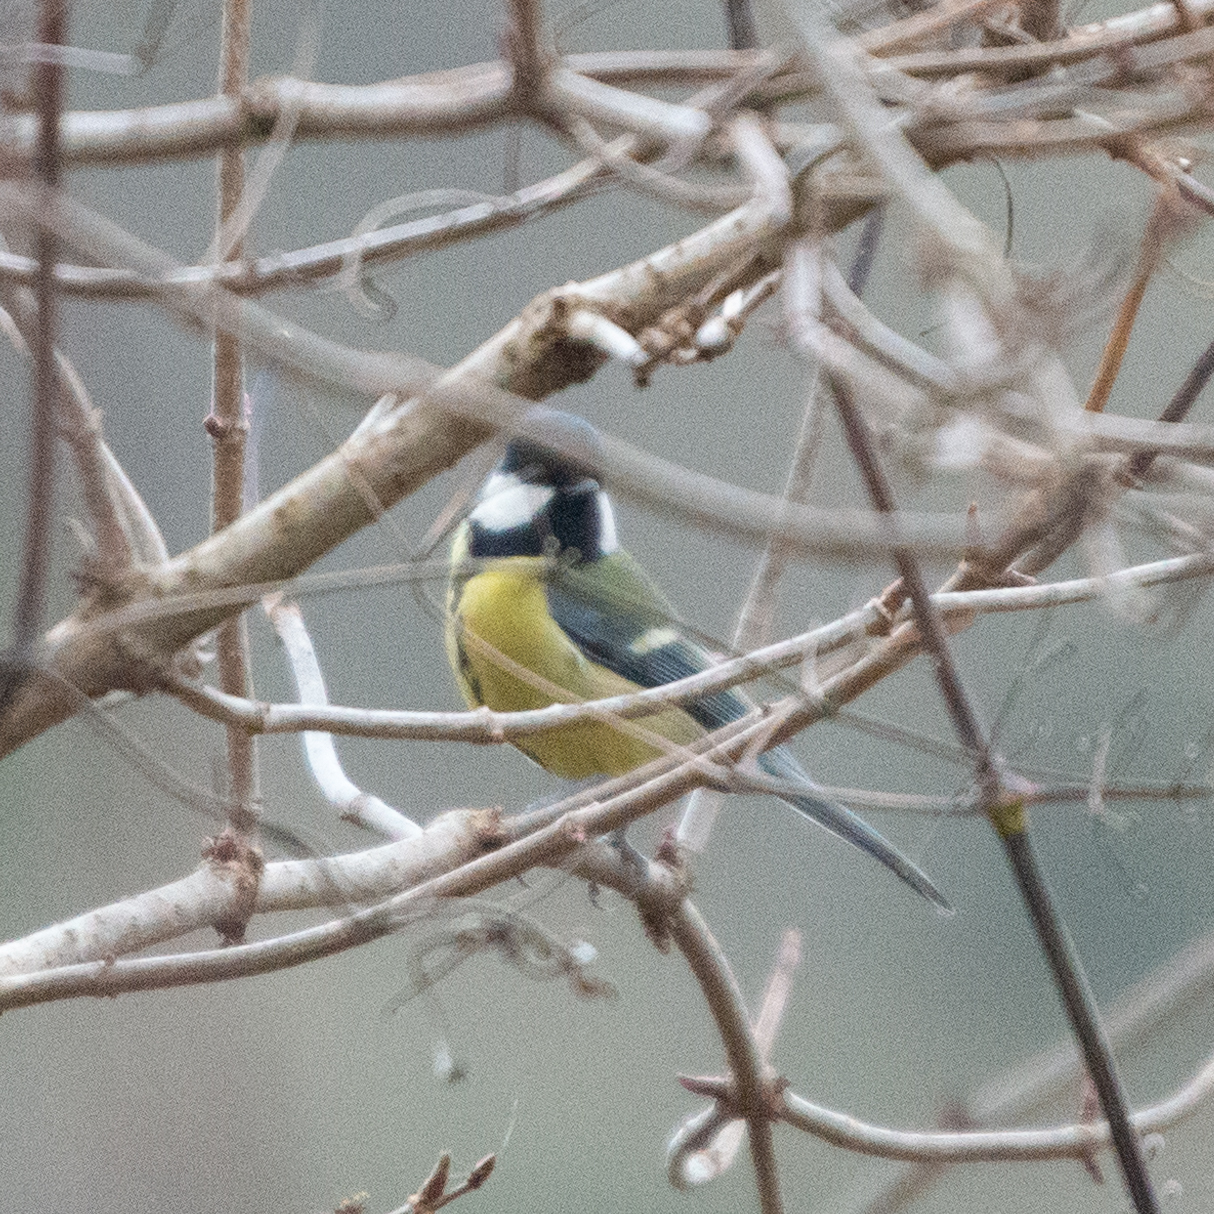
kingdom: Animalia
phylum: Chordata
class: Aves
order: Passeriformes
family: Paridae
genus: Parus
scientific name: Parus major
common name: Great tit
